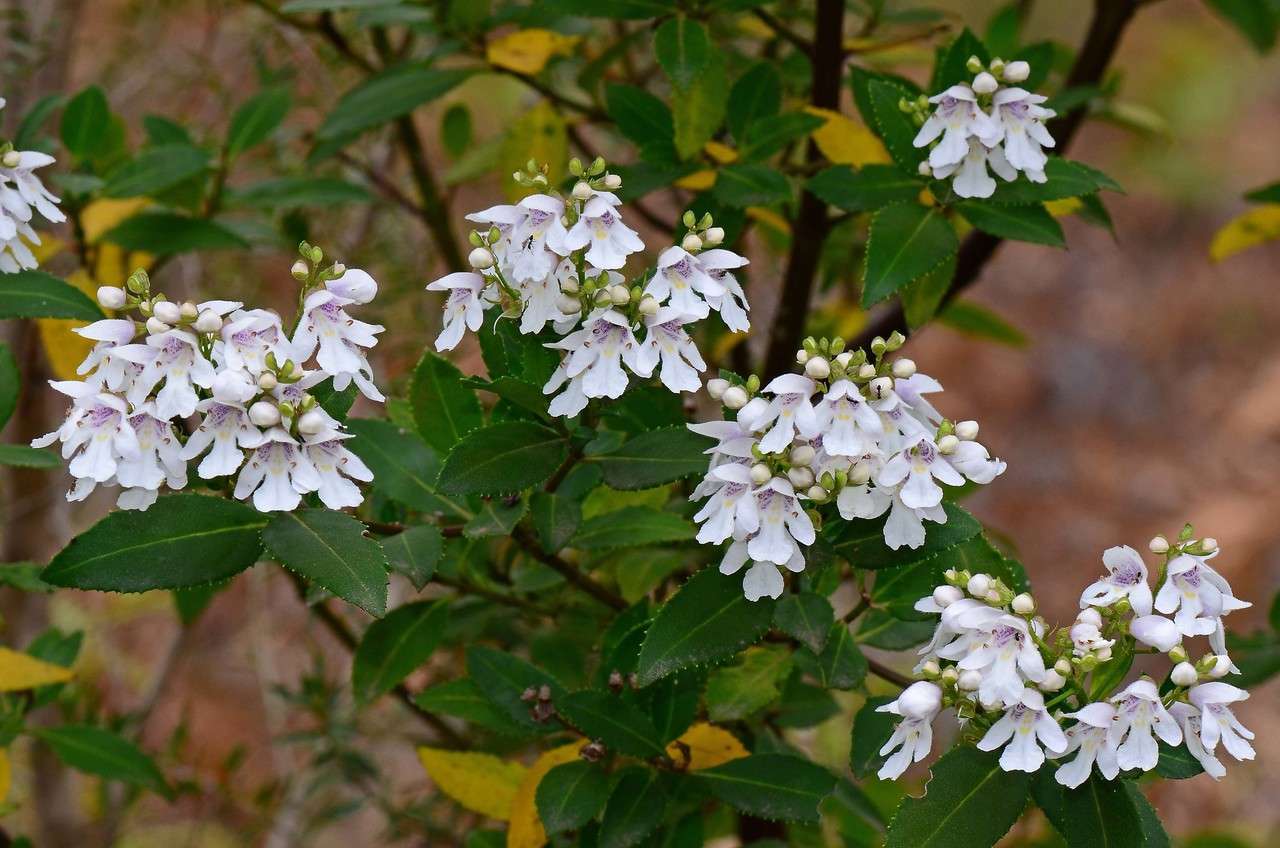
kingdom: Plantae
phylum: Tracheophyta
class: Magnoliopsida
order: Lamiales
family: Lamiaceae
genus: Prostanthera
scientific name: Prostanthera lasianthos
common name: Mountain-lilac
